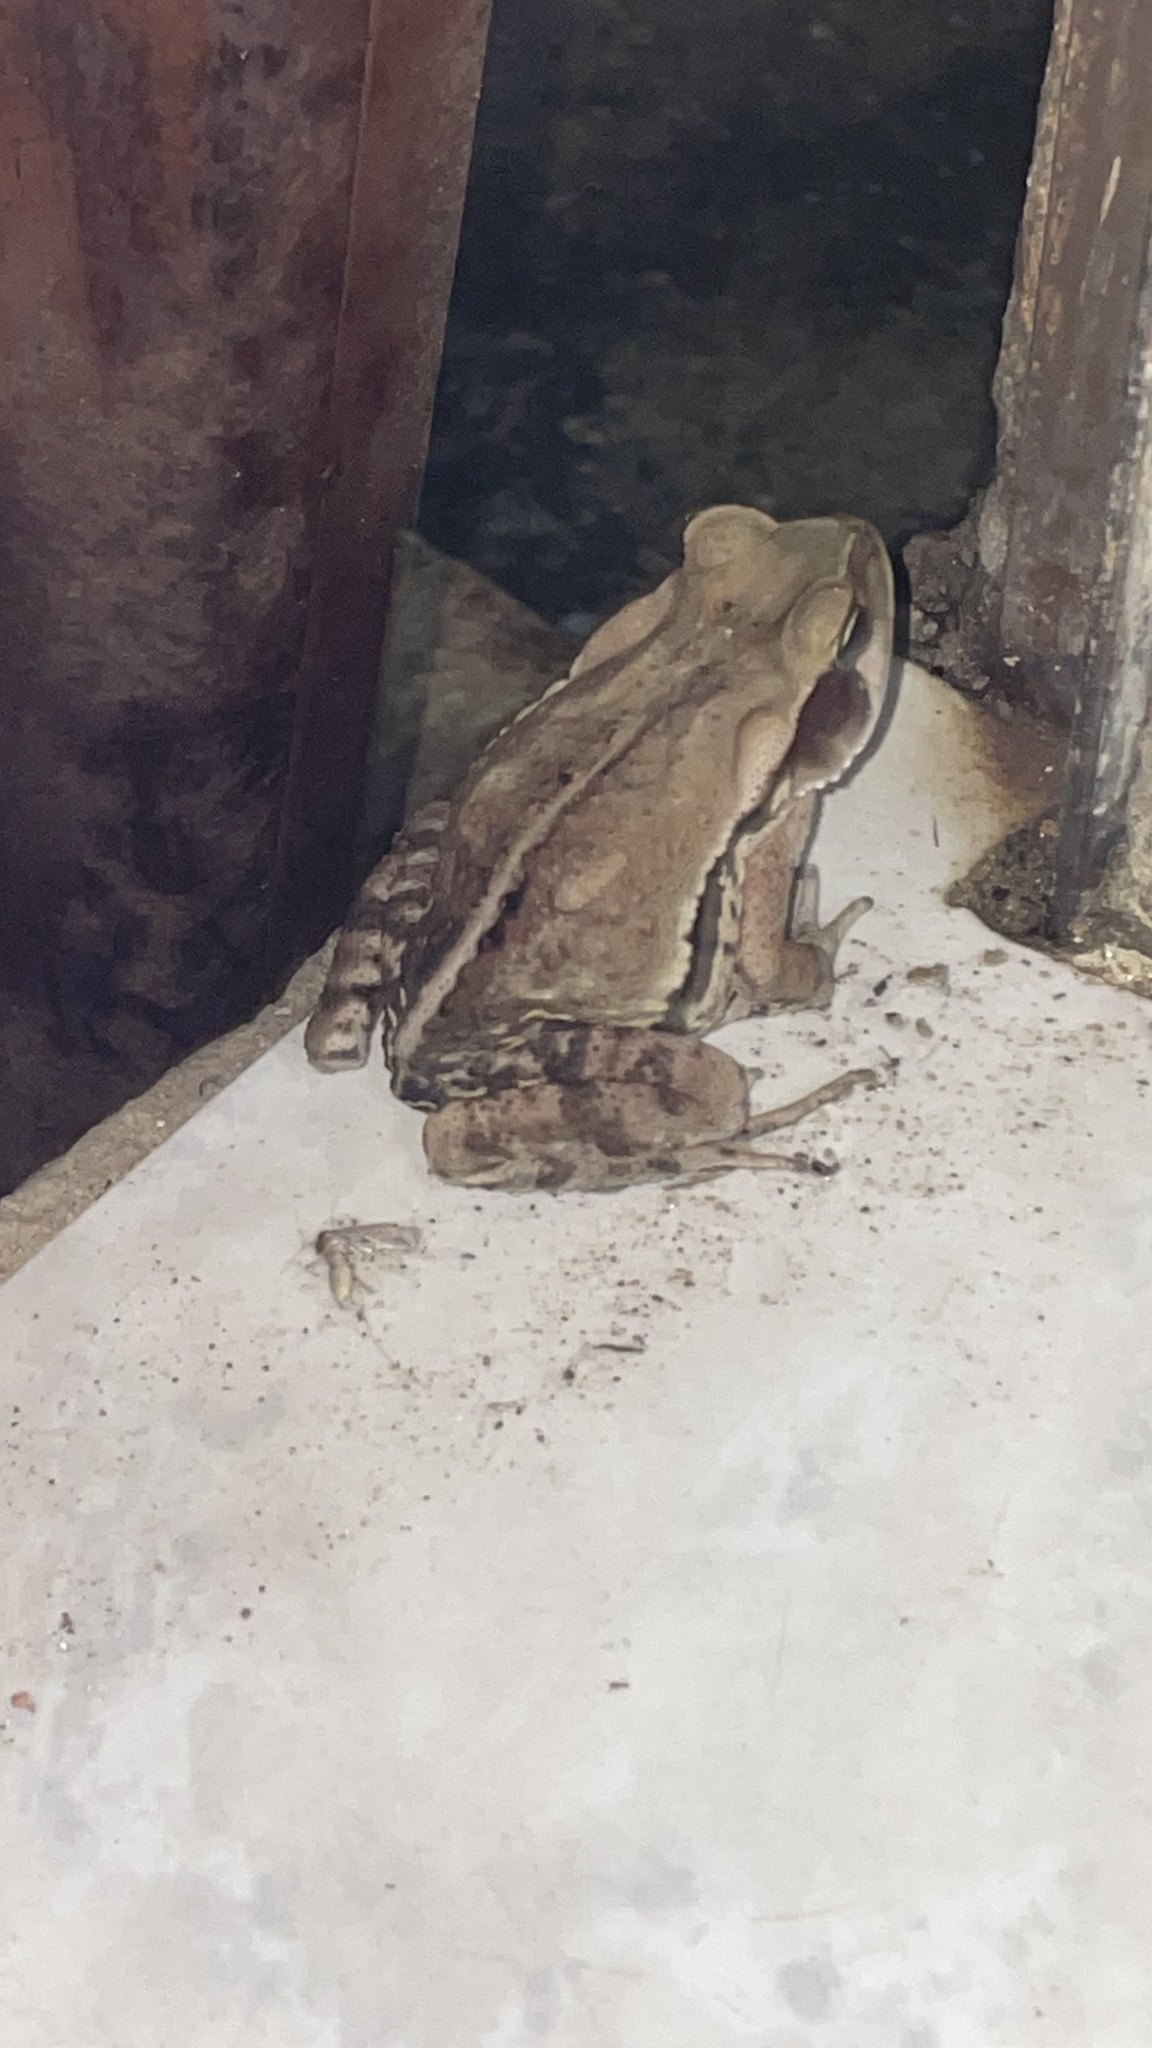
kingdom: Animalia
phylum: Chordata
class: Amphibia
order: Anura
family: Bufonidae
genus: Rhinella
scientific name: Rhinella crucifer
